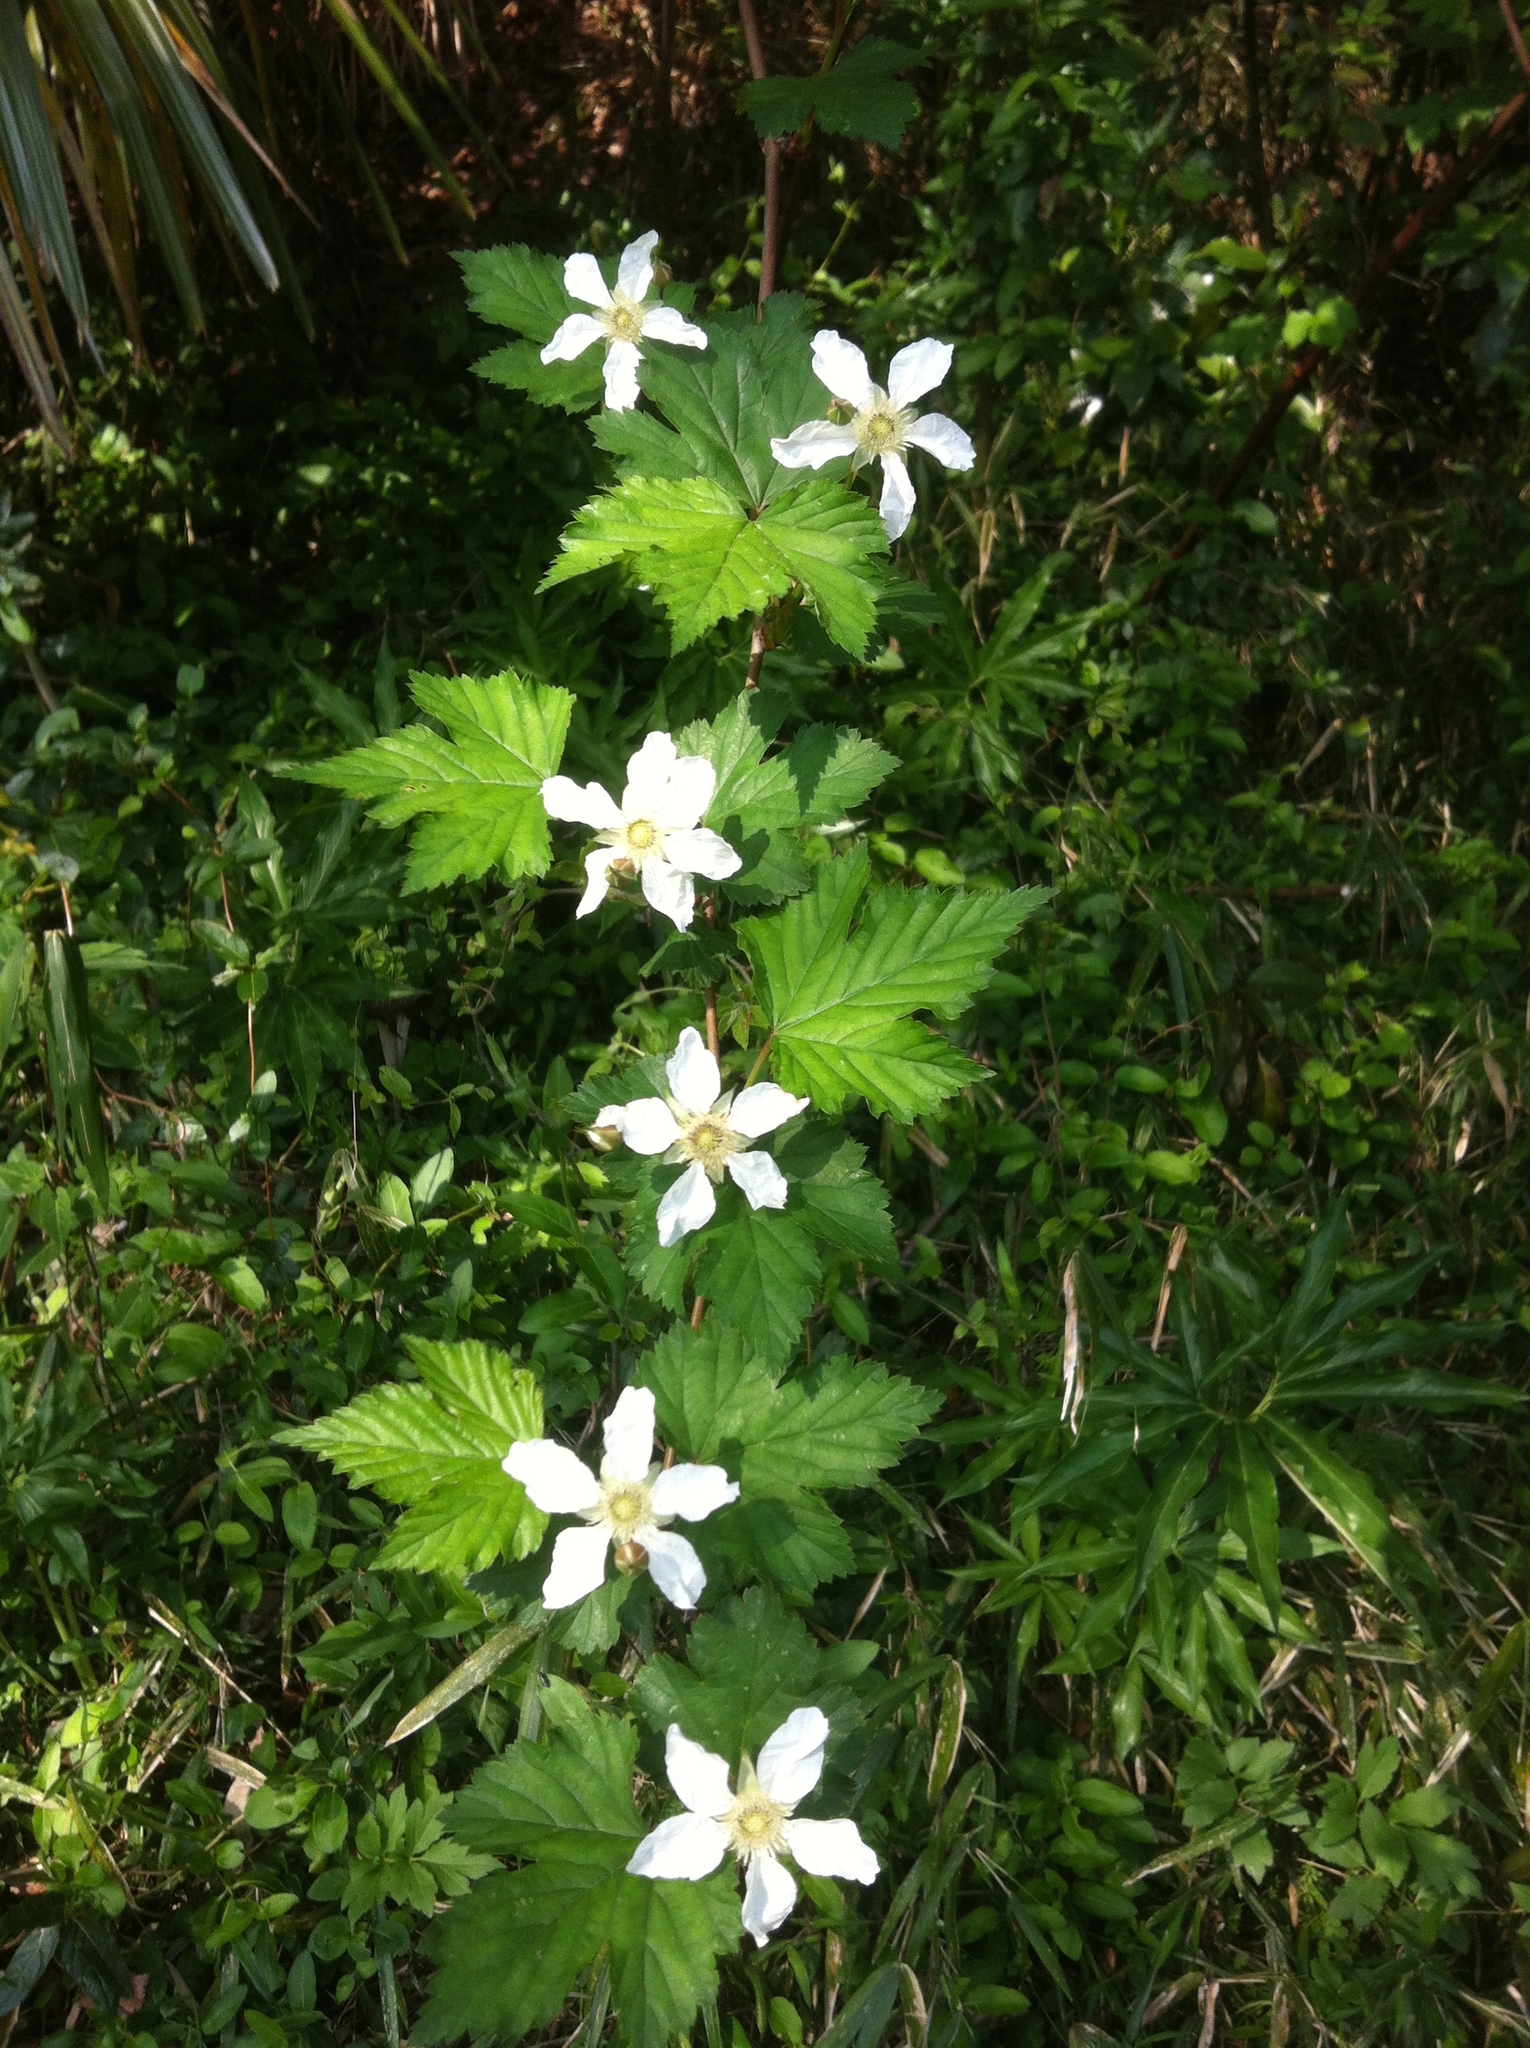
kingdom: Plantae
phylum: Tracheophyta
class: Magnoliopsida
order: Rosales
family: Rosaceae
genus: Rubus
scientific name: Rubus microphyllus
